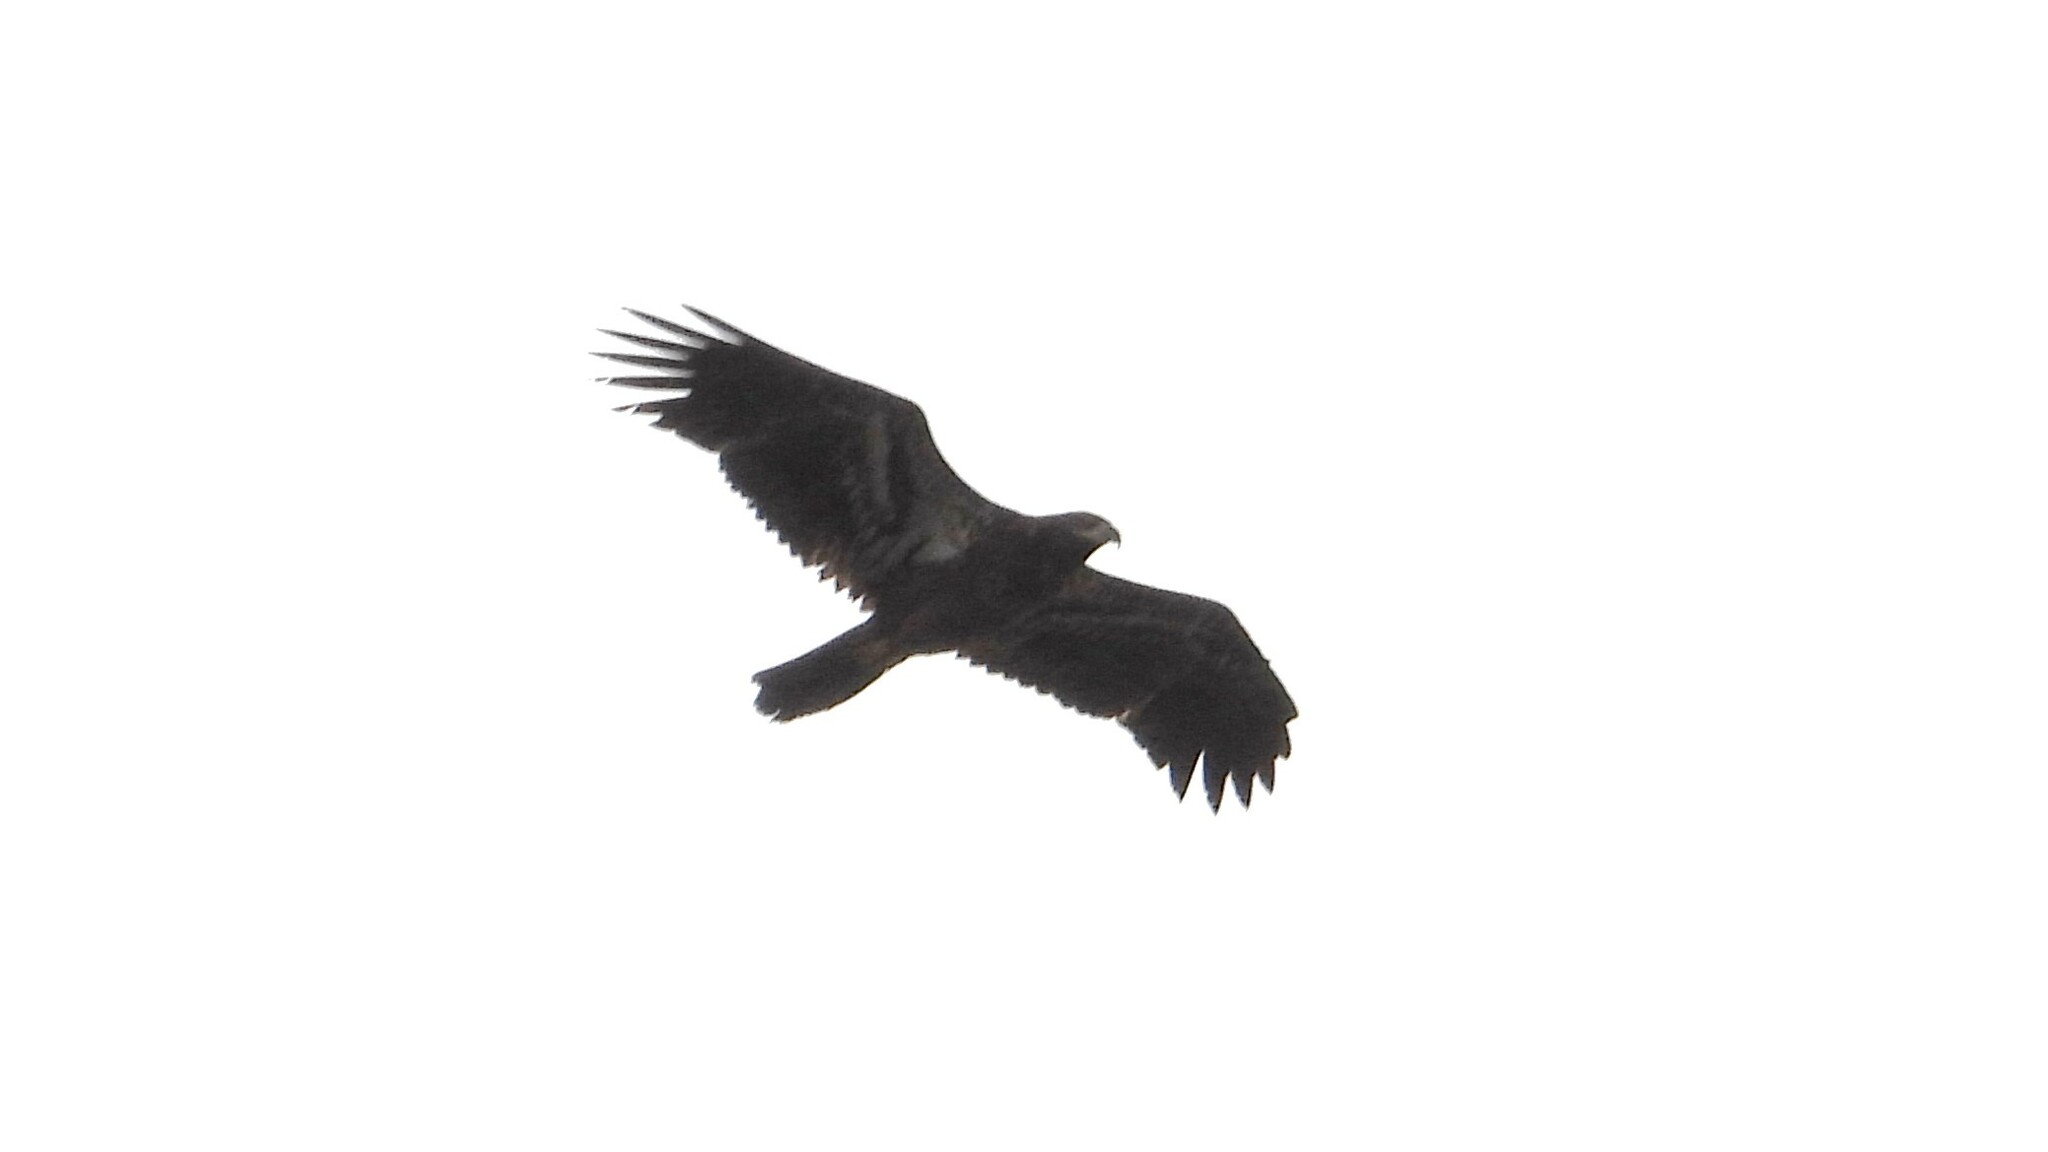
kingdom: Animalia
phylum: Chordata
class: Aves
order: Accipitriformes
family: Accipitridae
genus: Haliaeetus
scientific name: Haliaeetus leucocephalus
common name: Bald eagle
